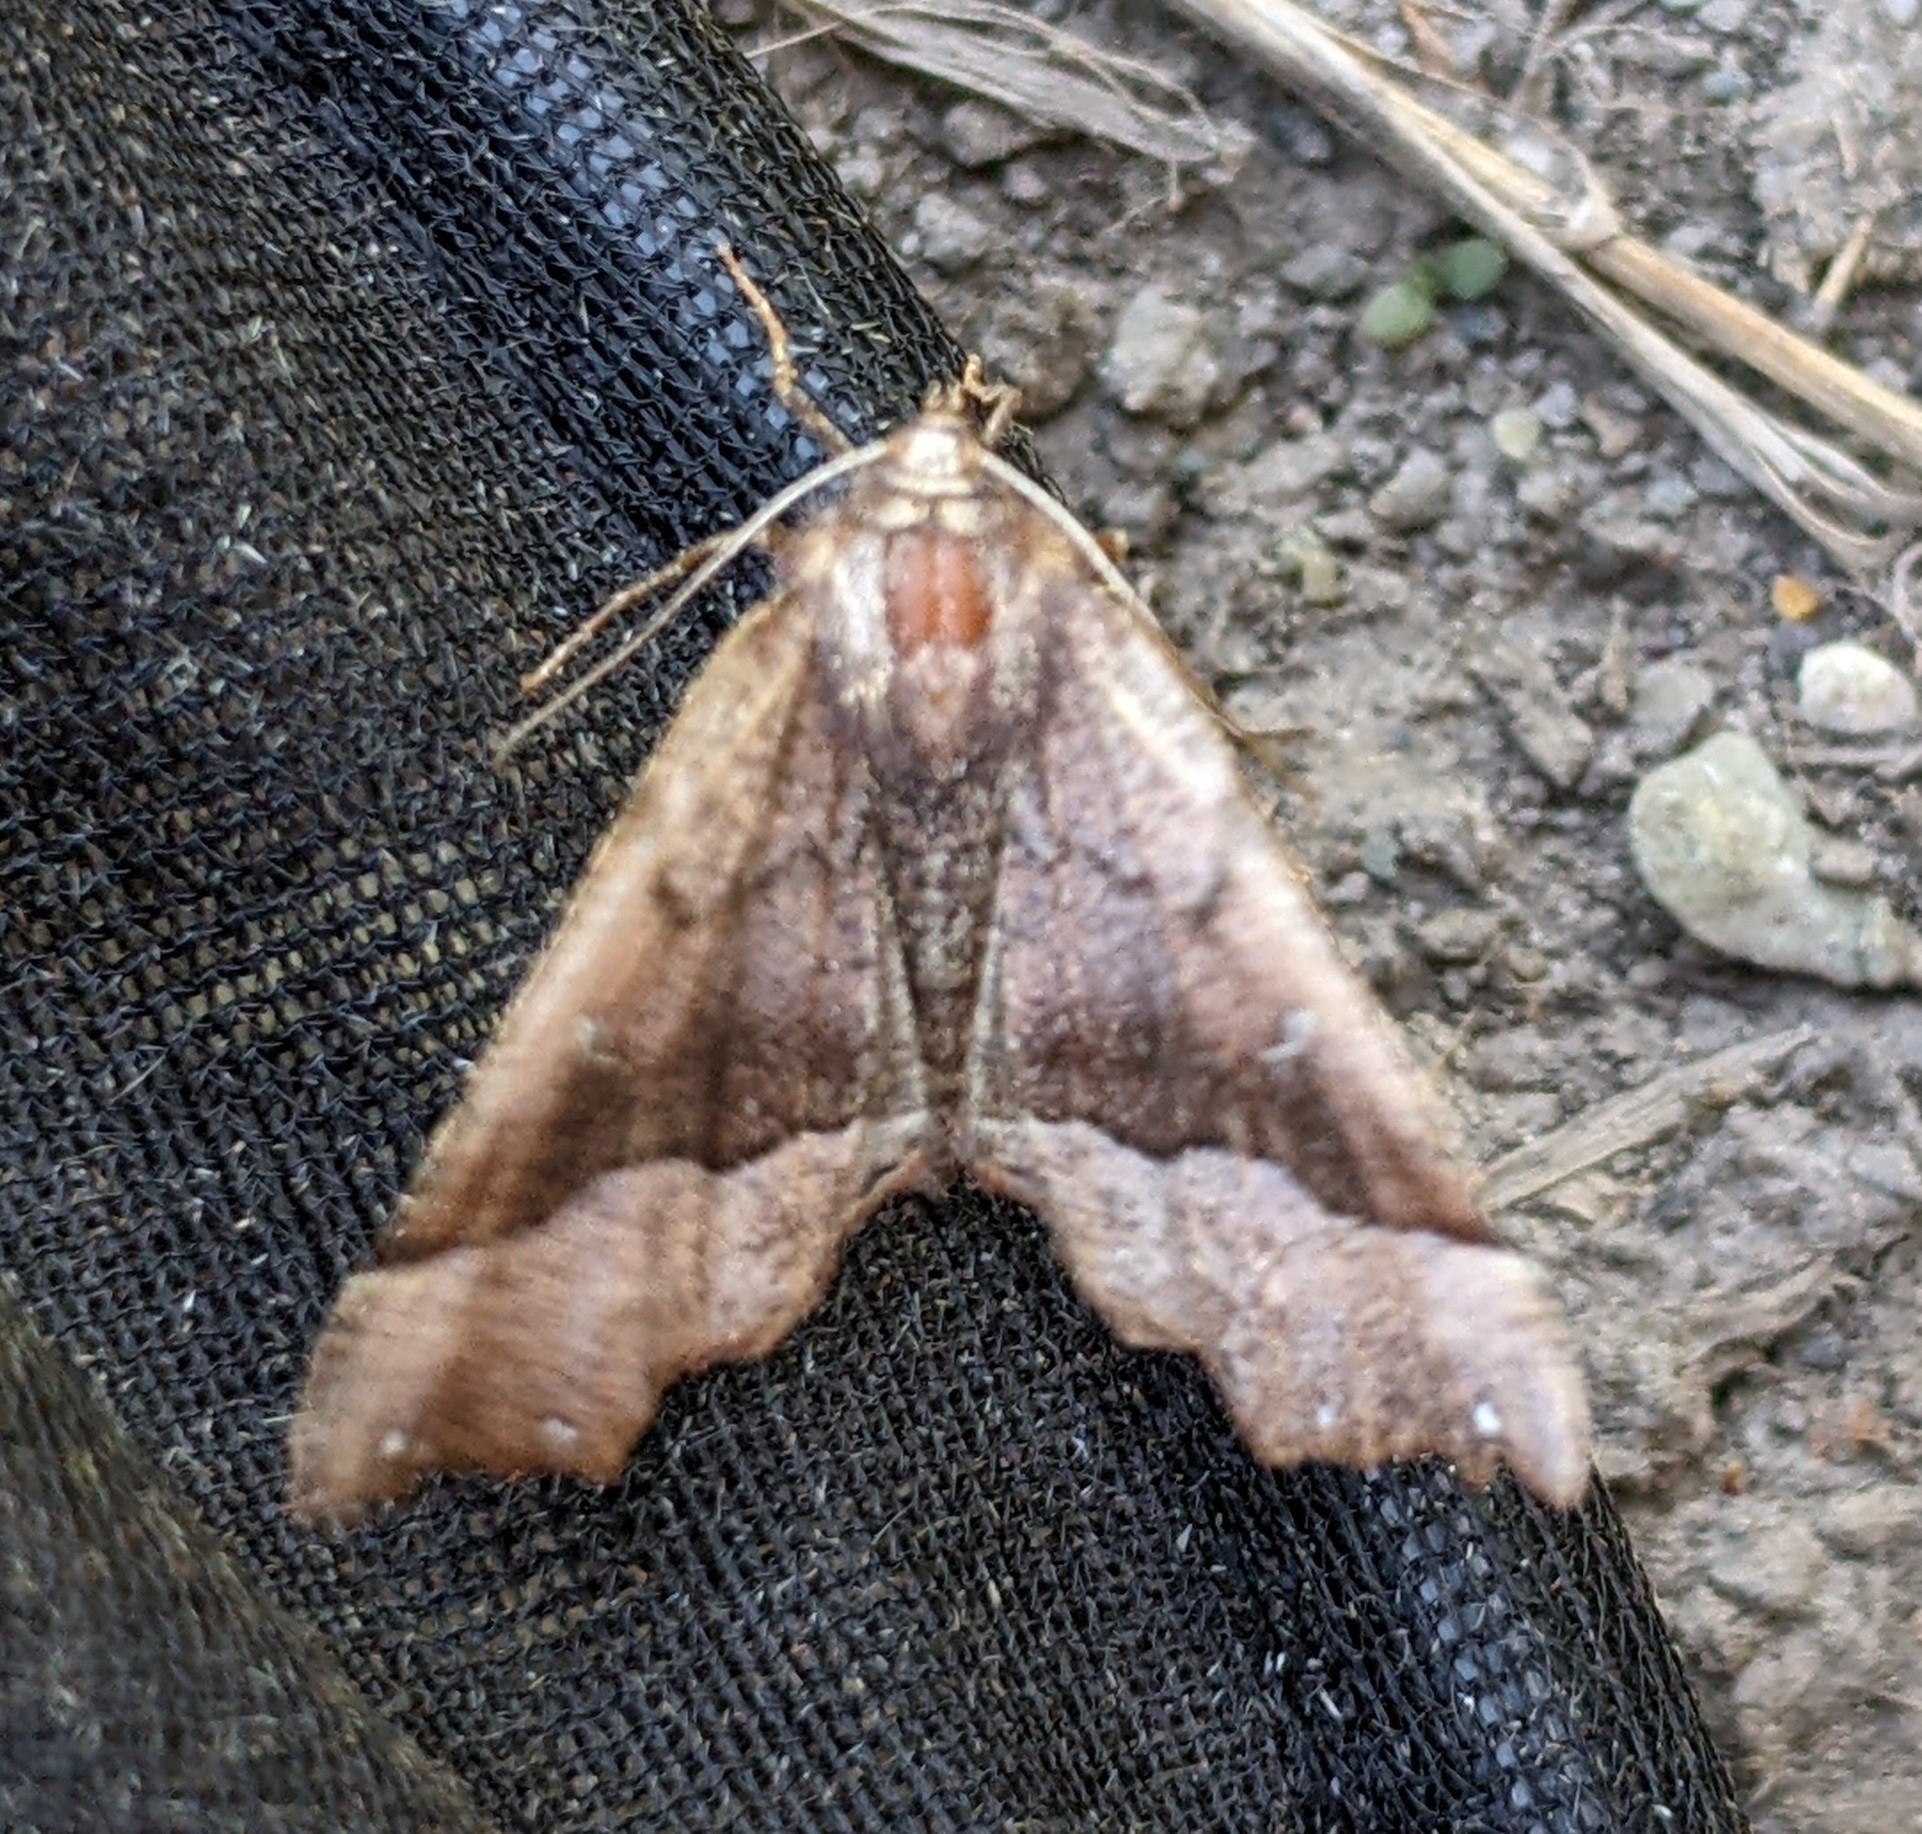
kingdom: Animalia
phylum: Arthropoda
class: Insecta
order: Lepidoptera
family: Geometridae
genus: Pero
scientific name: Pero mizon
